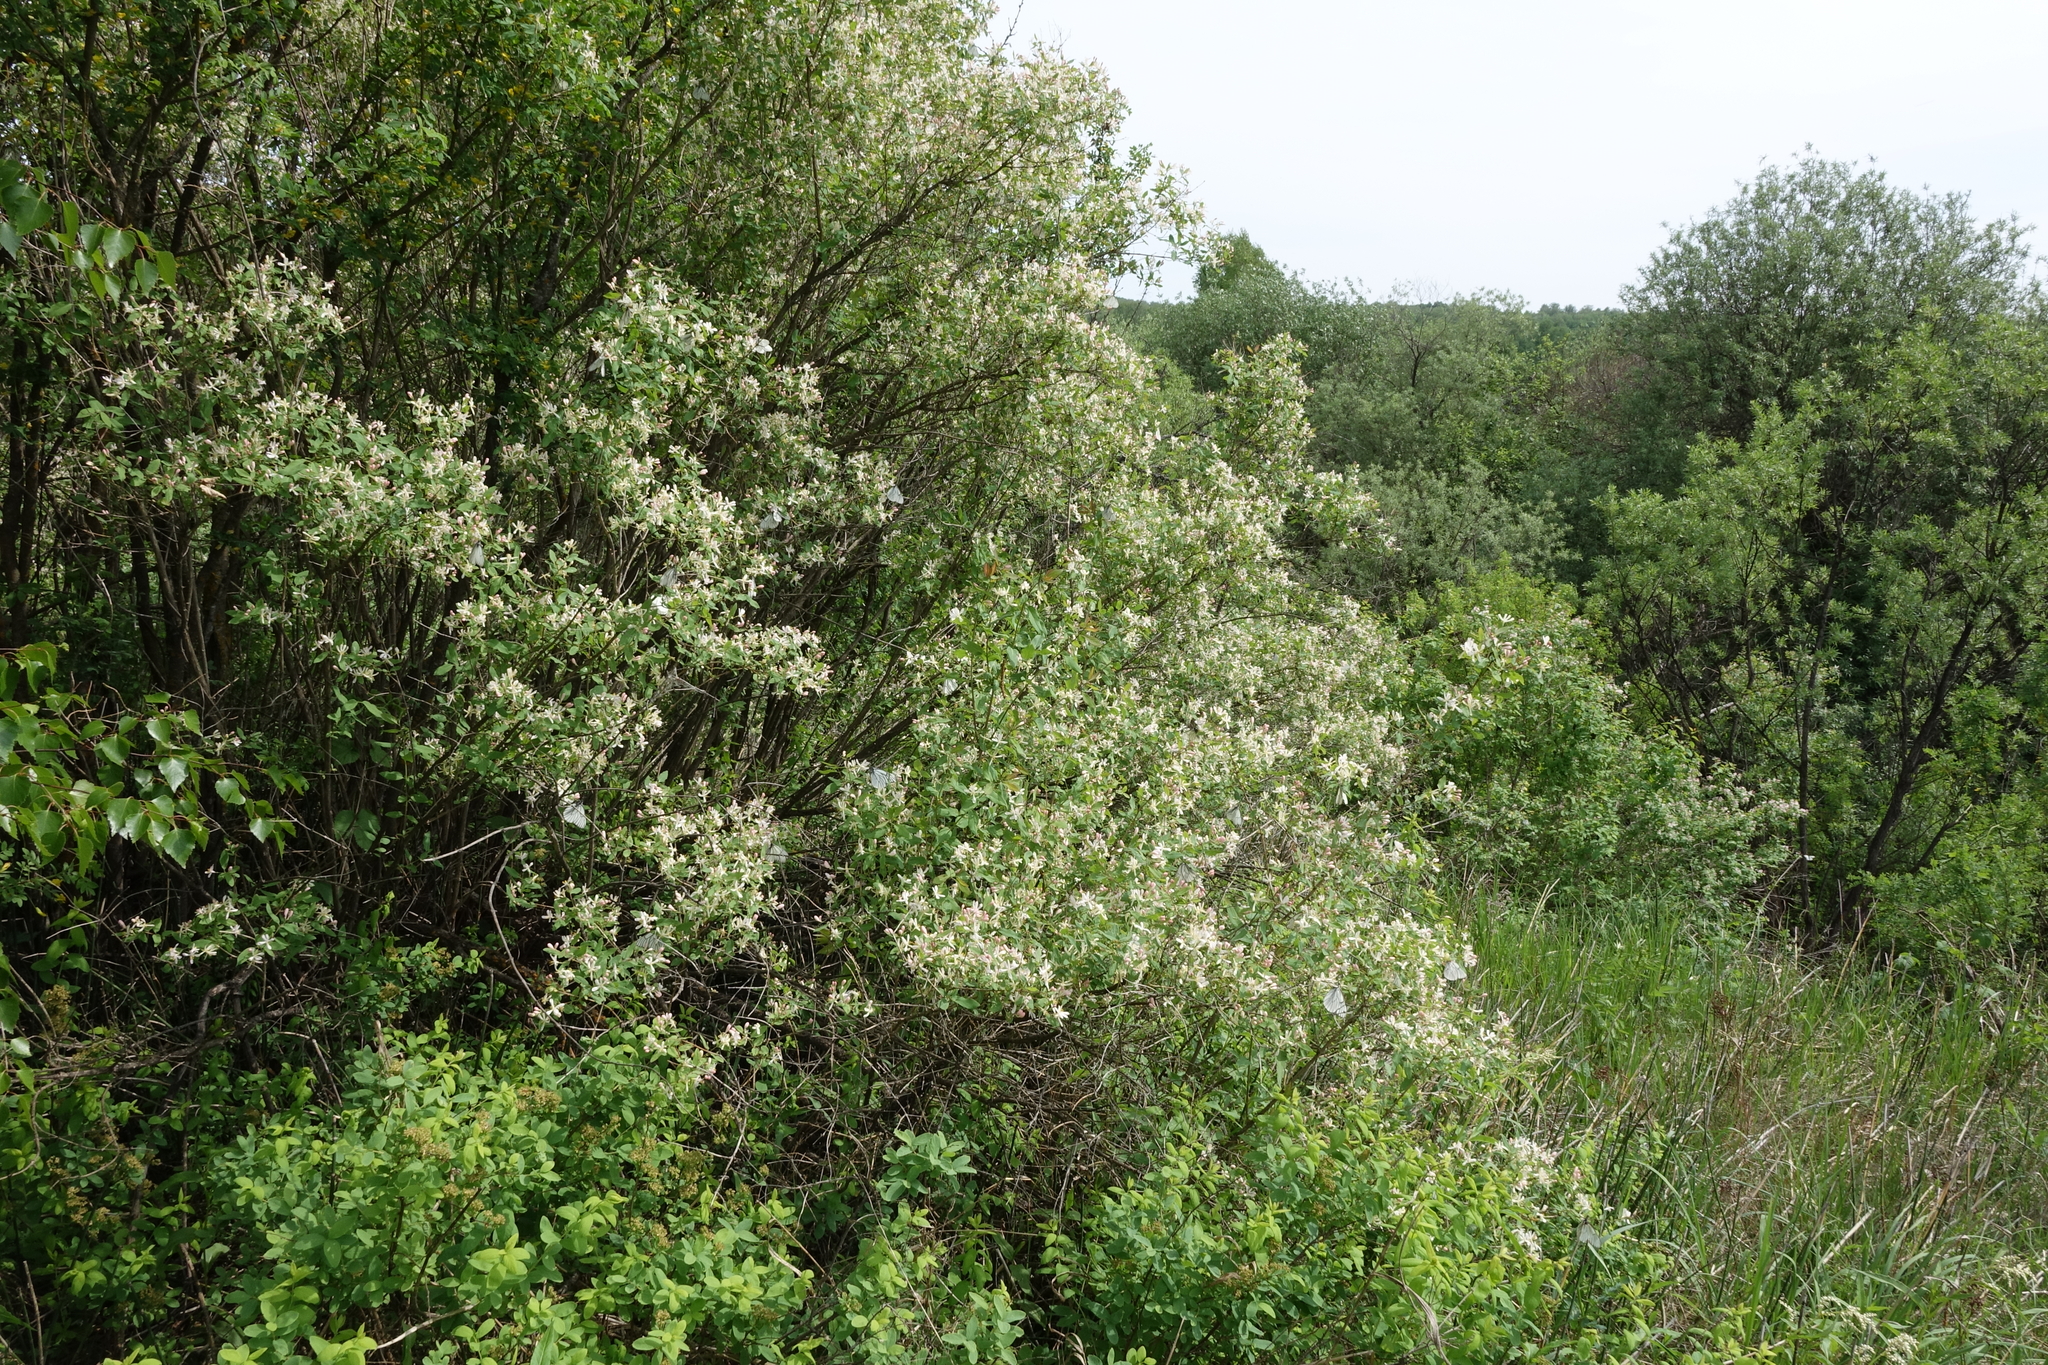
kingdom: Plantae
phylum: Tracheophyta
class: Magnoliopsida
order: Dipsacales
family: Caprifoliaceae
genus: Lonicera
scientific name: Lonicera tatarica
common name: Tatarian honeysuckle
